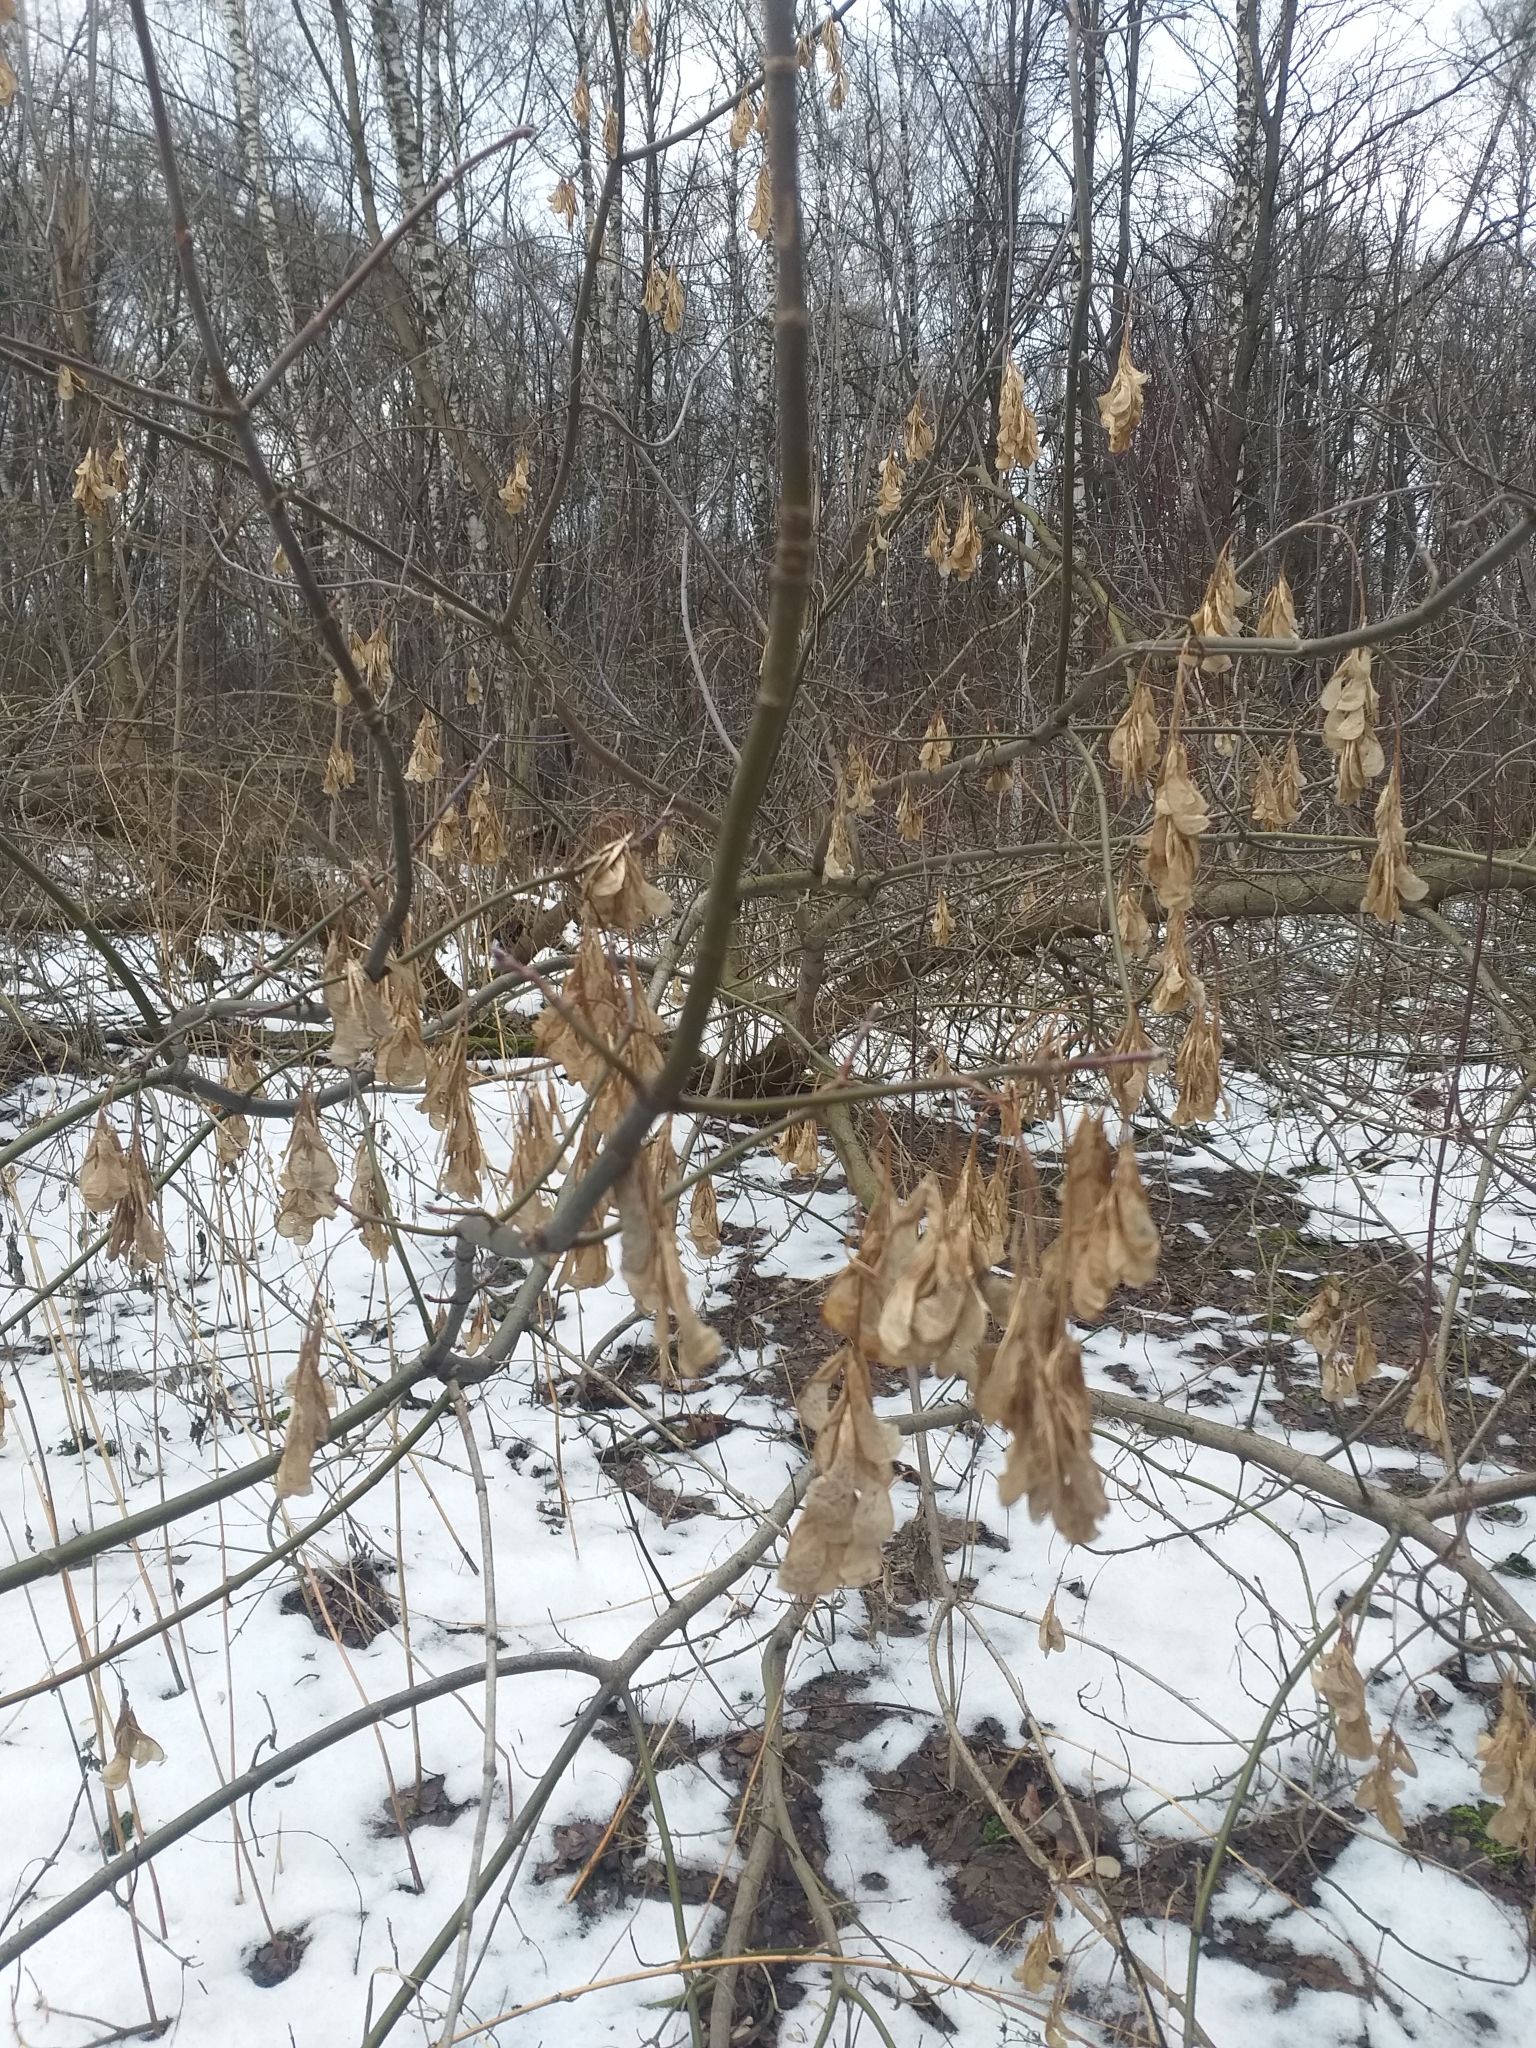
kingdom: Plantae
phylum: Tracheophyta
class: Magnoliopsida
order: Sapindales
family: Sapindaceae
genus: Acer
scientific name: Acer negundo
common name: Ashleaf maple
